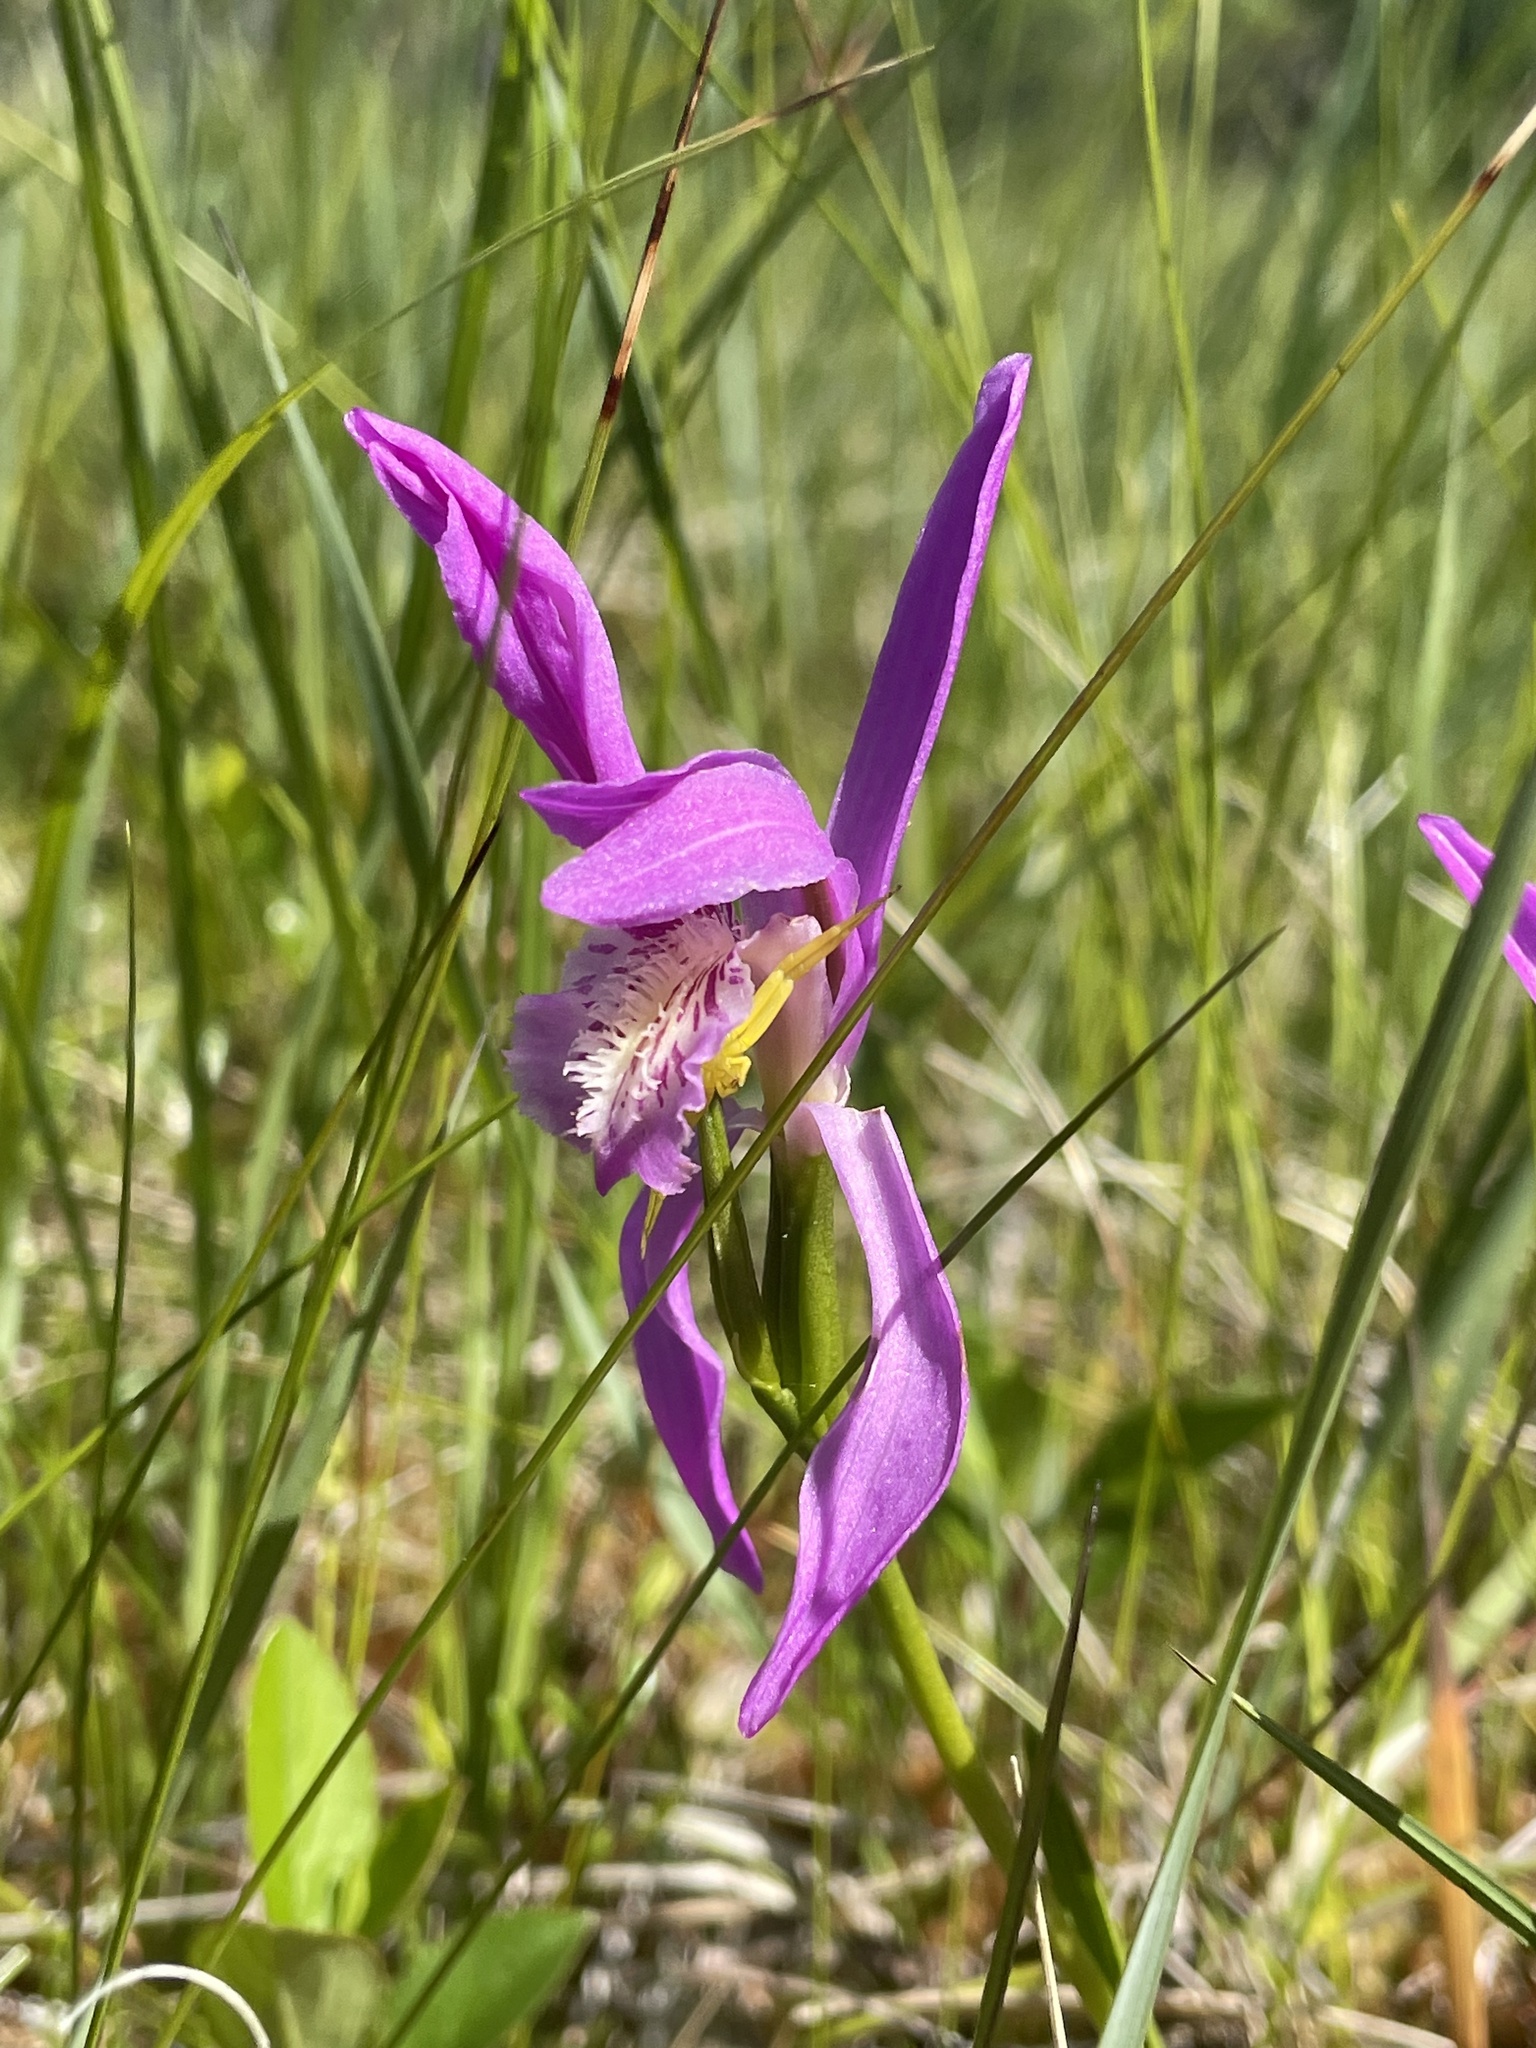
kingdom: Plantae
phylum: Tracheophyta
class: Liliopsida
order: Asparagales
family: Orchidaceae
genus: Arethusa
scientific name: Arethusa bulbosa
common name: Arethusa
